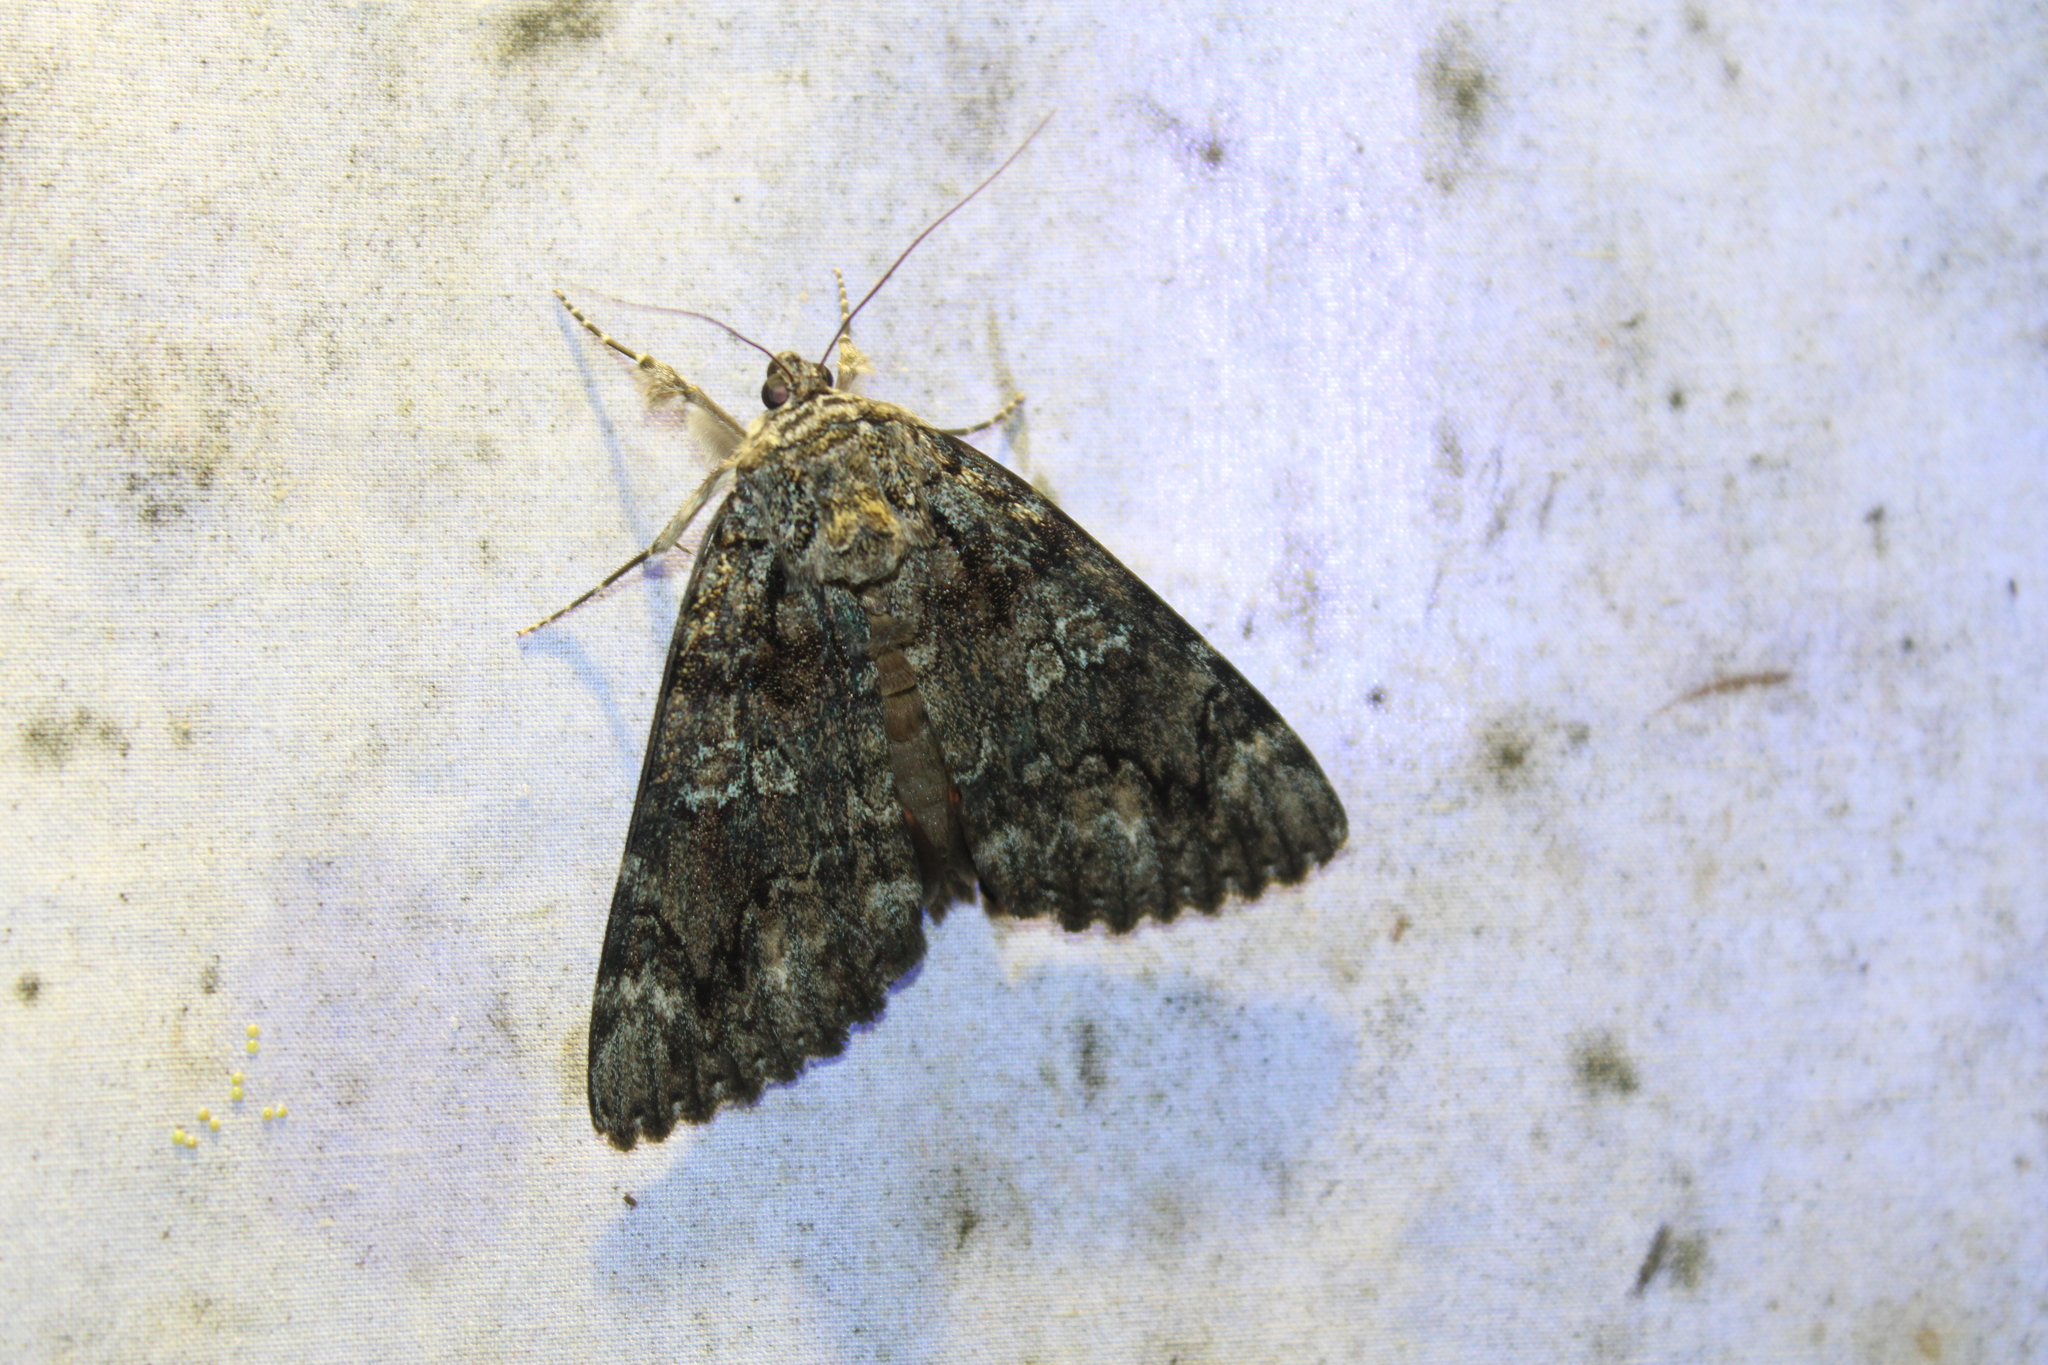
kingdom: Animalia
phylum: Arthropoda
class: Insecta
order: Lepidoptera
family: Erebidae
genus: Catocala
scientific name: Catocala ilia
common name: Ilia underwing
